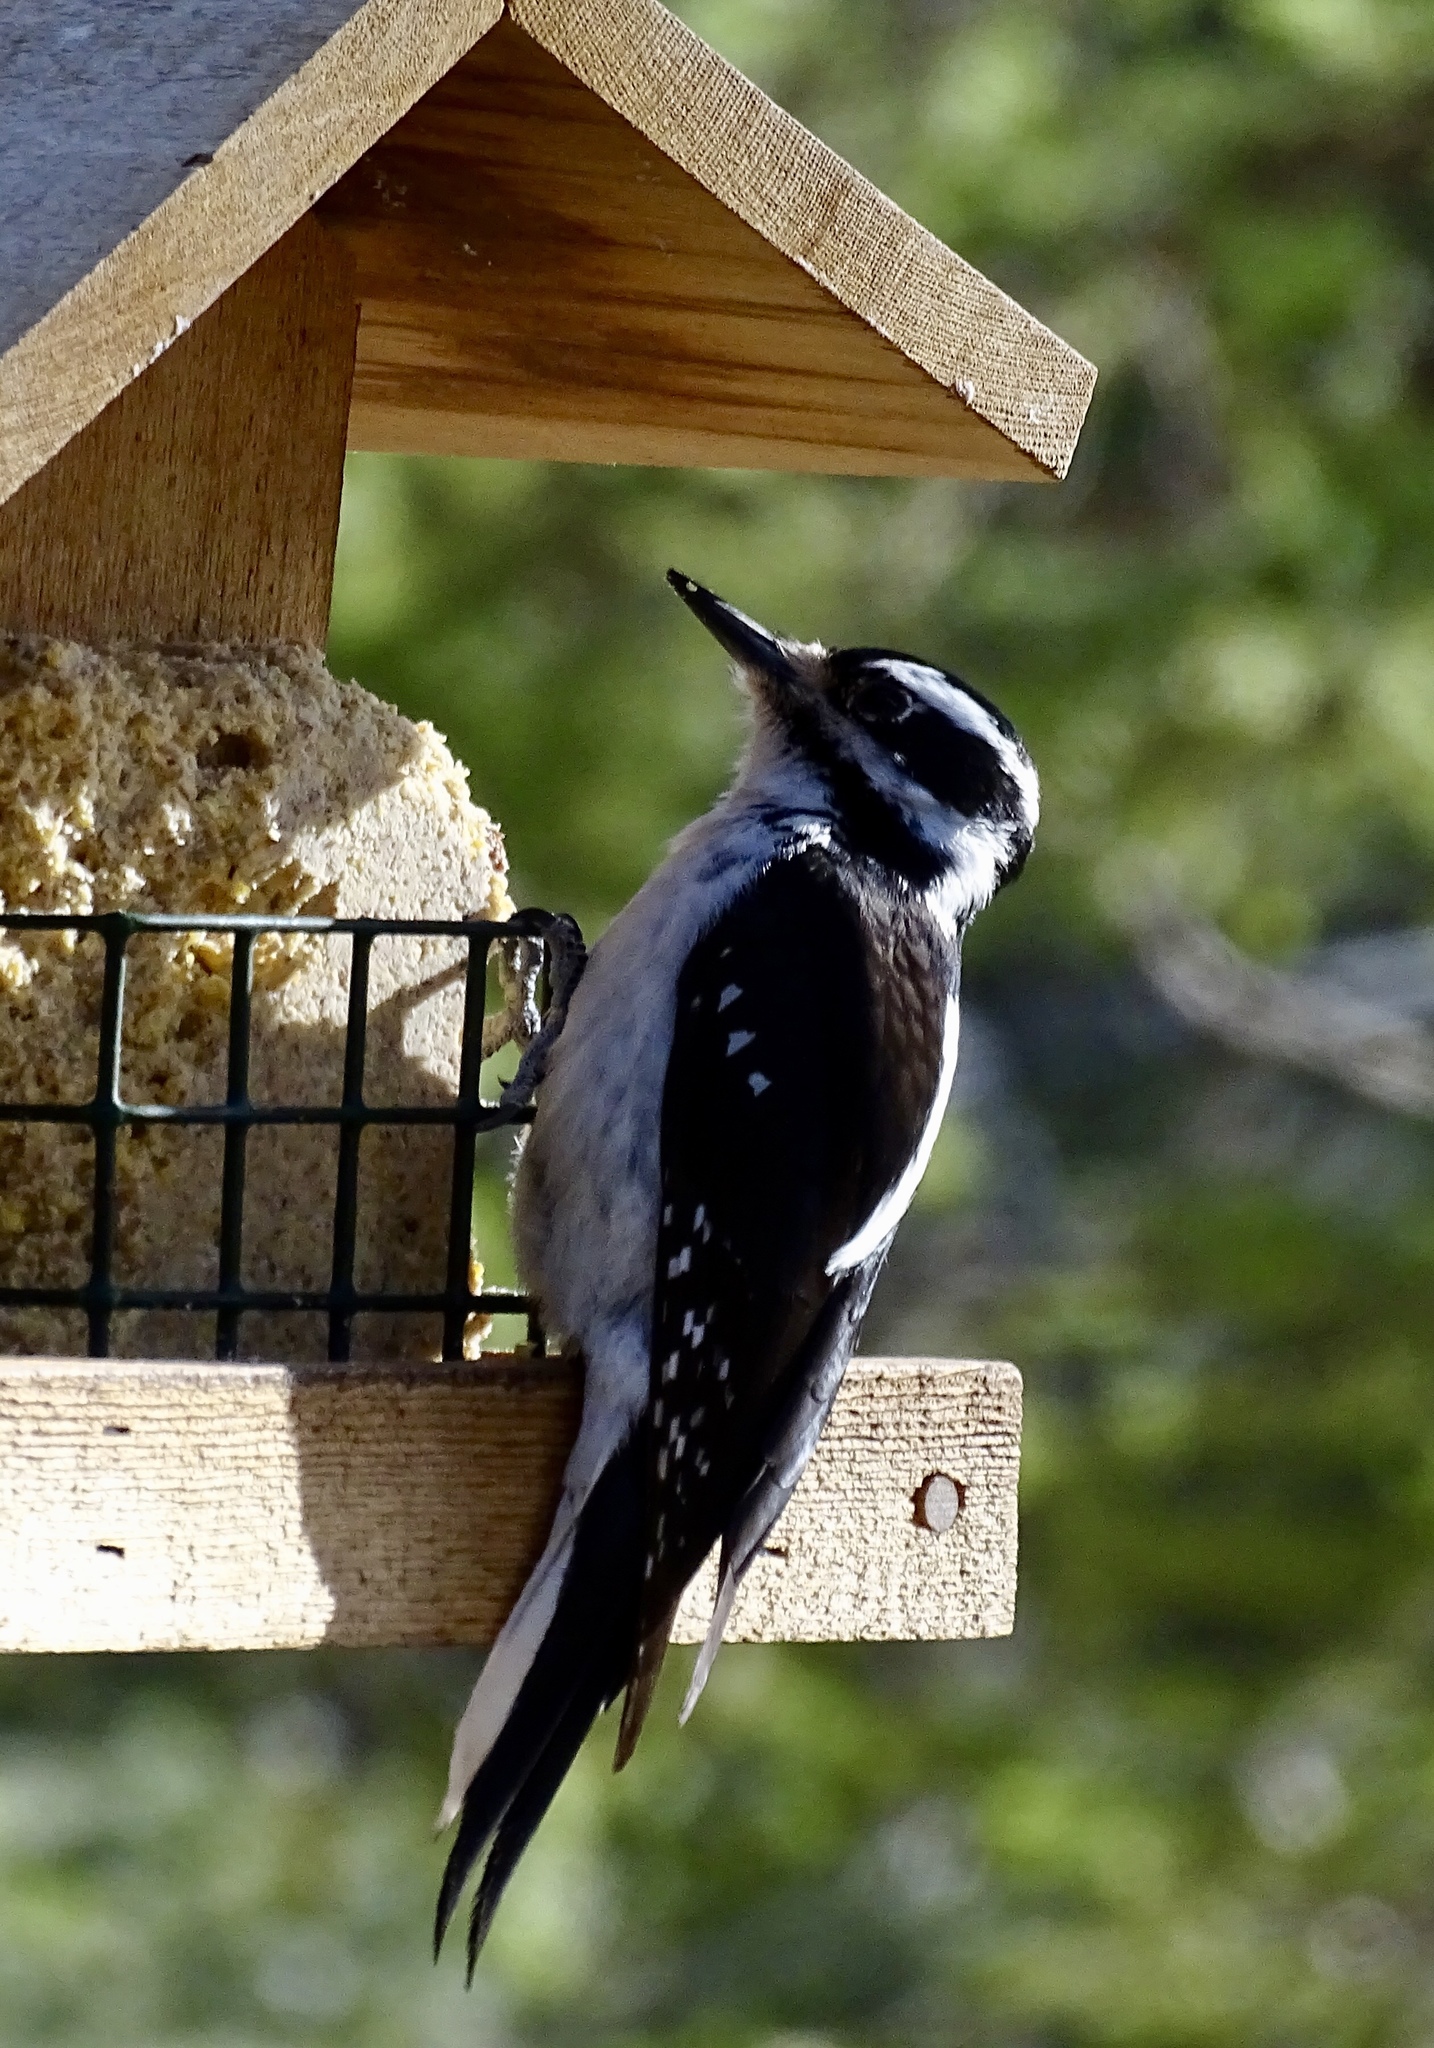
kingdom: Animalia
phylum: Chordata
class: Aves
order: Piciformes
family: Picidae
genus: Leuconotopicus
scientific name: Leuconotopicus villosus
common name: Hairy woodpecker
